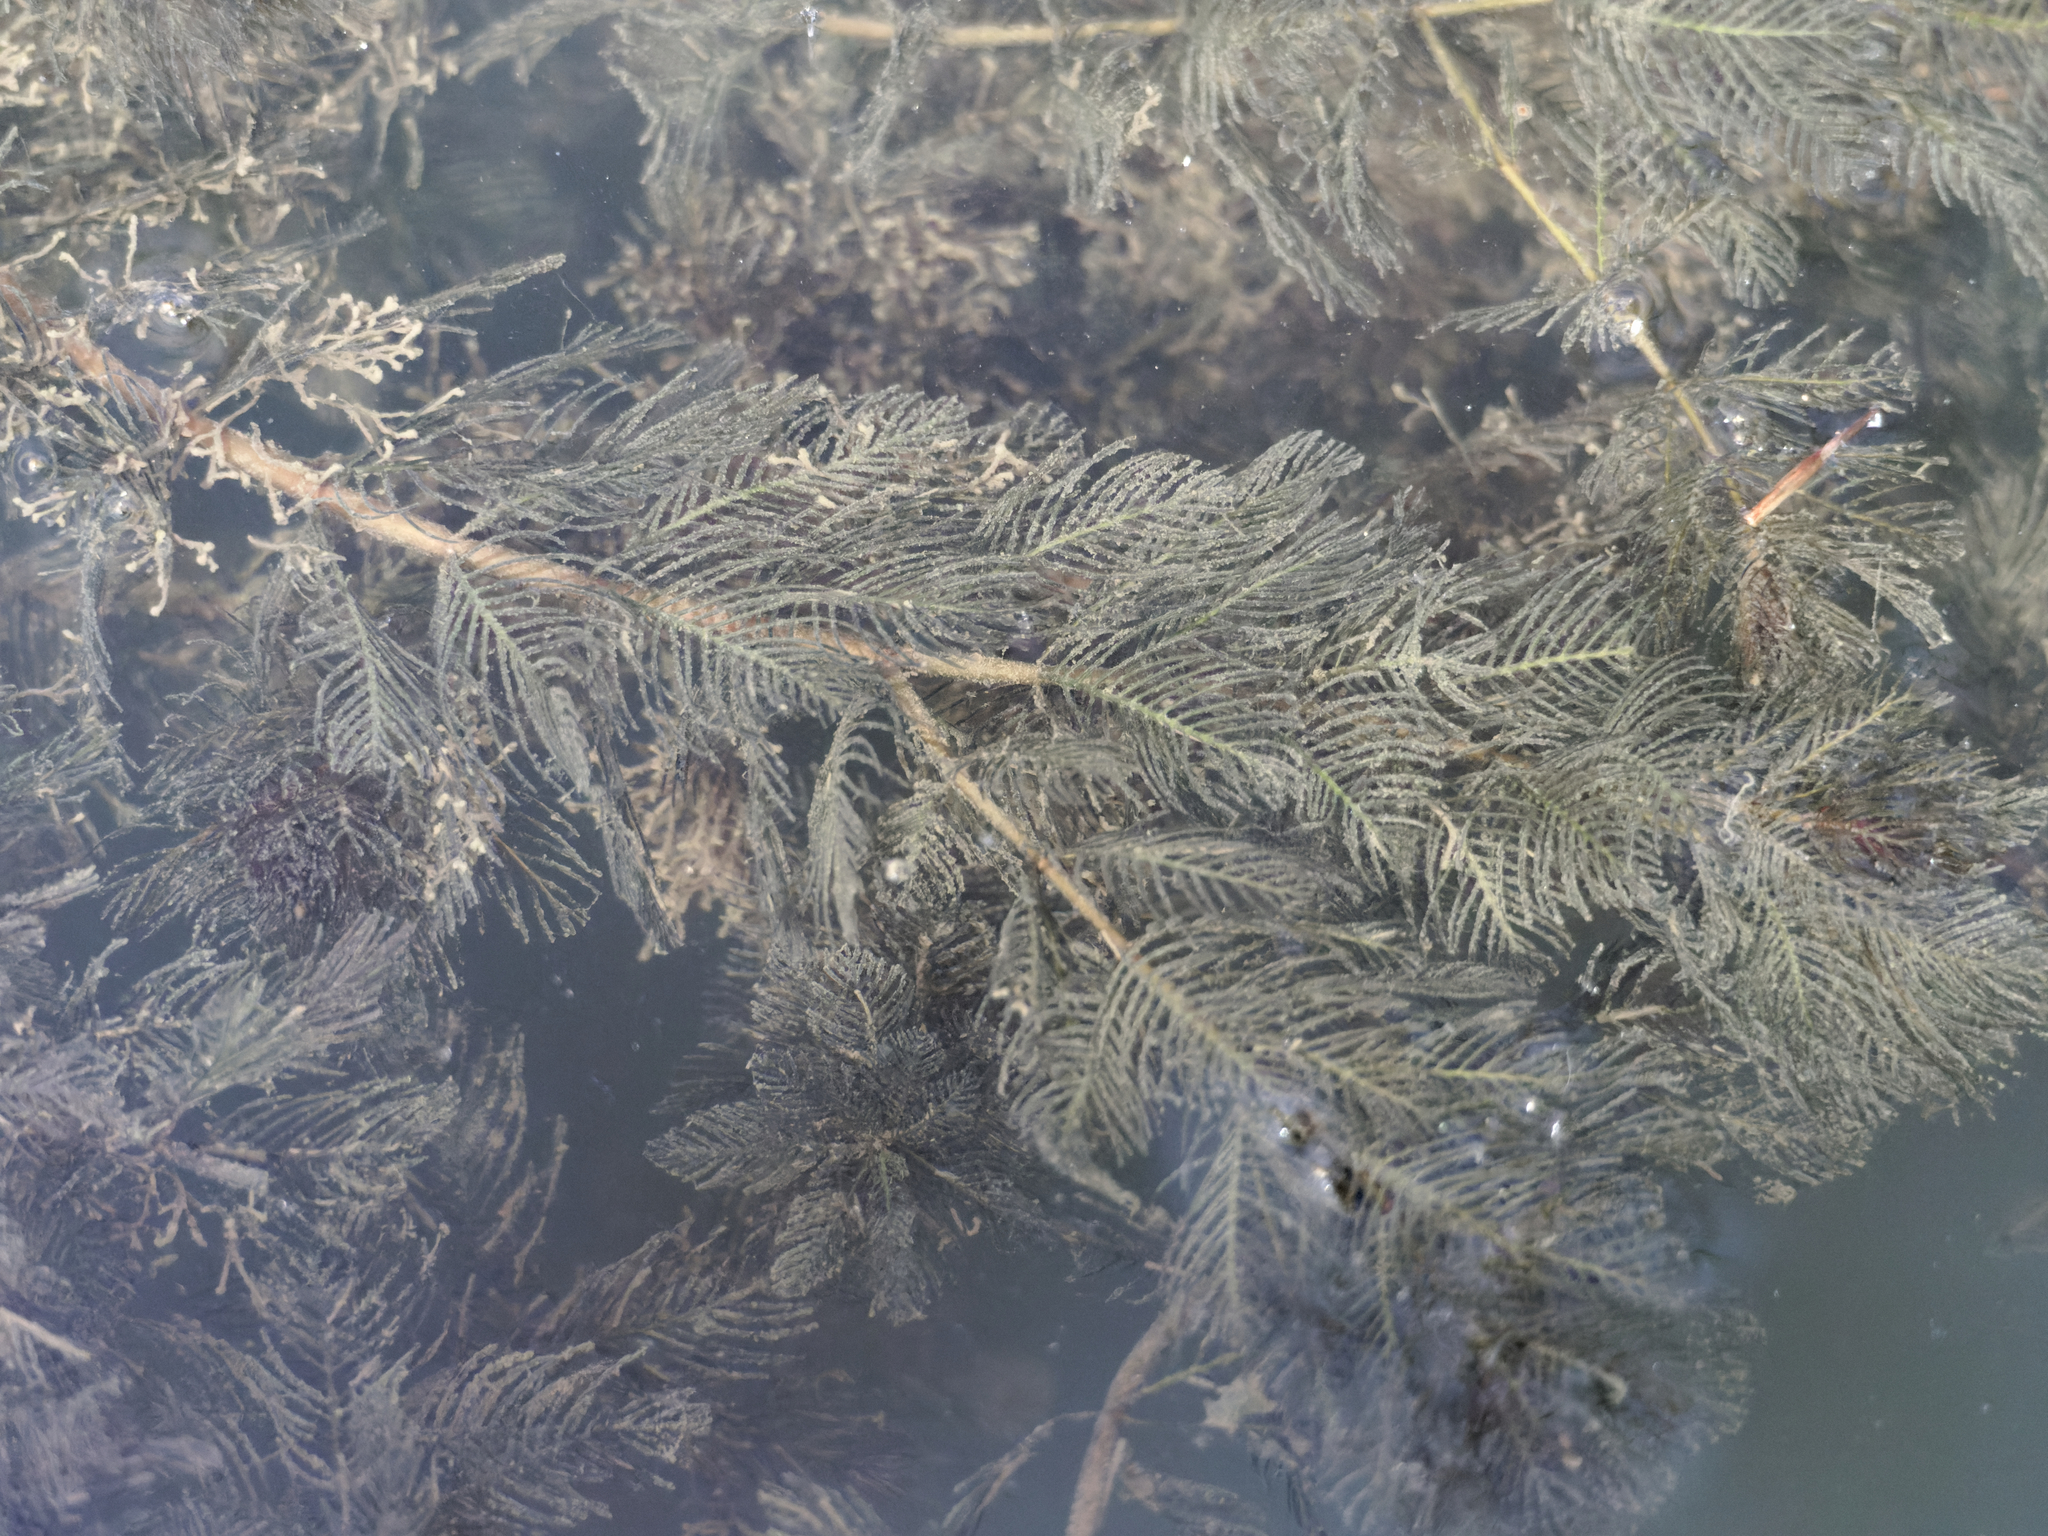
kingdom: Plantae
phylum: Tracheophyta
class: Magnoliopsida
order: Saxifragales
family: Haloragaceae
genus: Myriophyllum
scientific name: Myriophyllum spicatum
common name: Spiked water-milfoil
